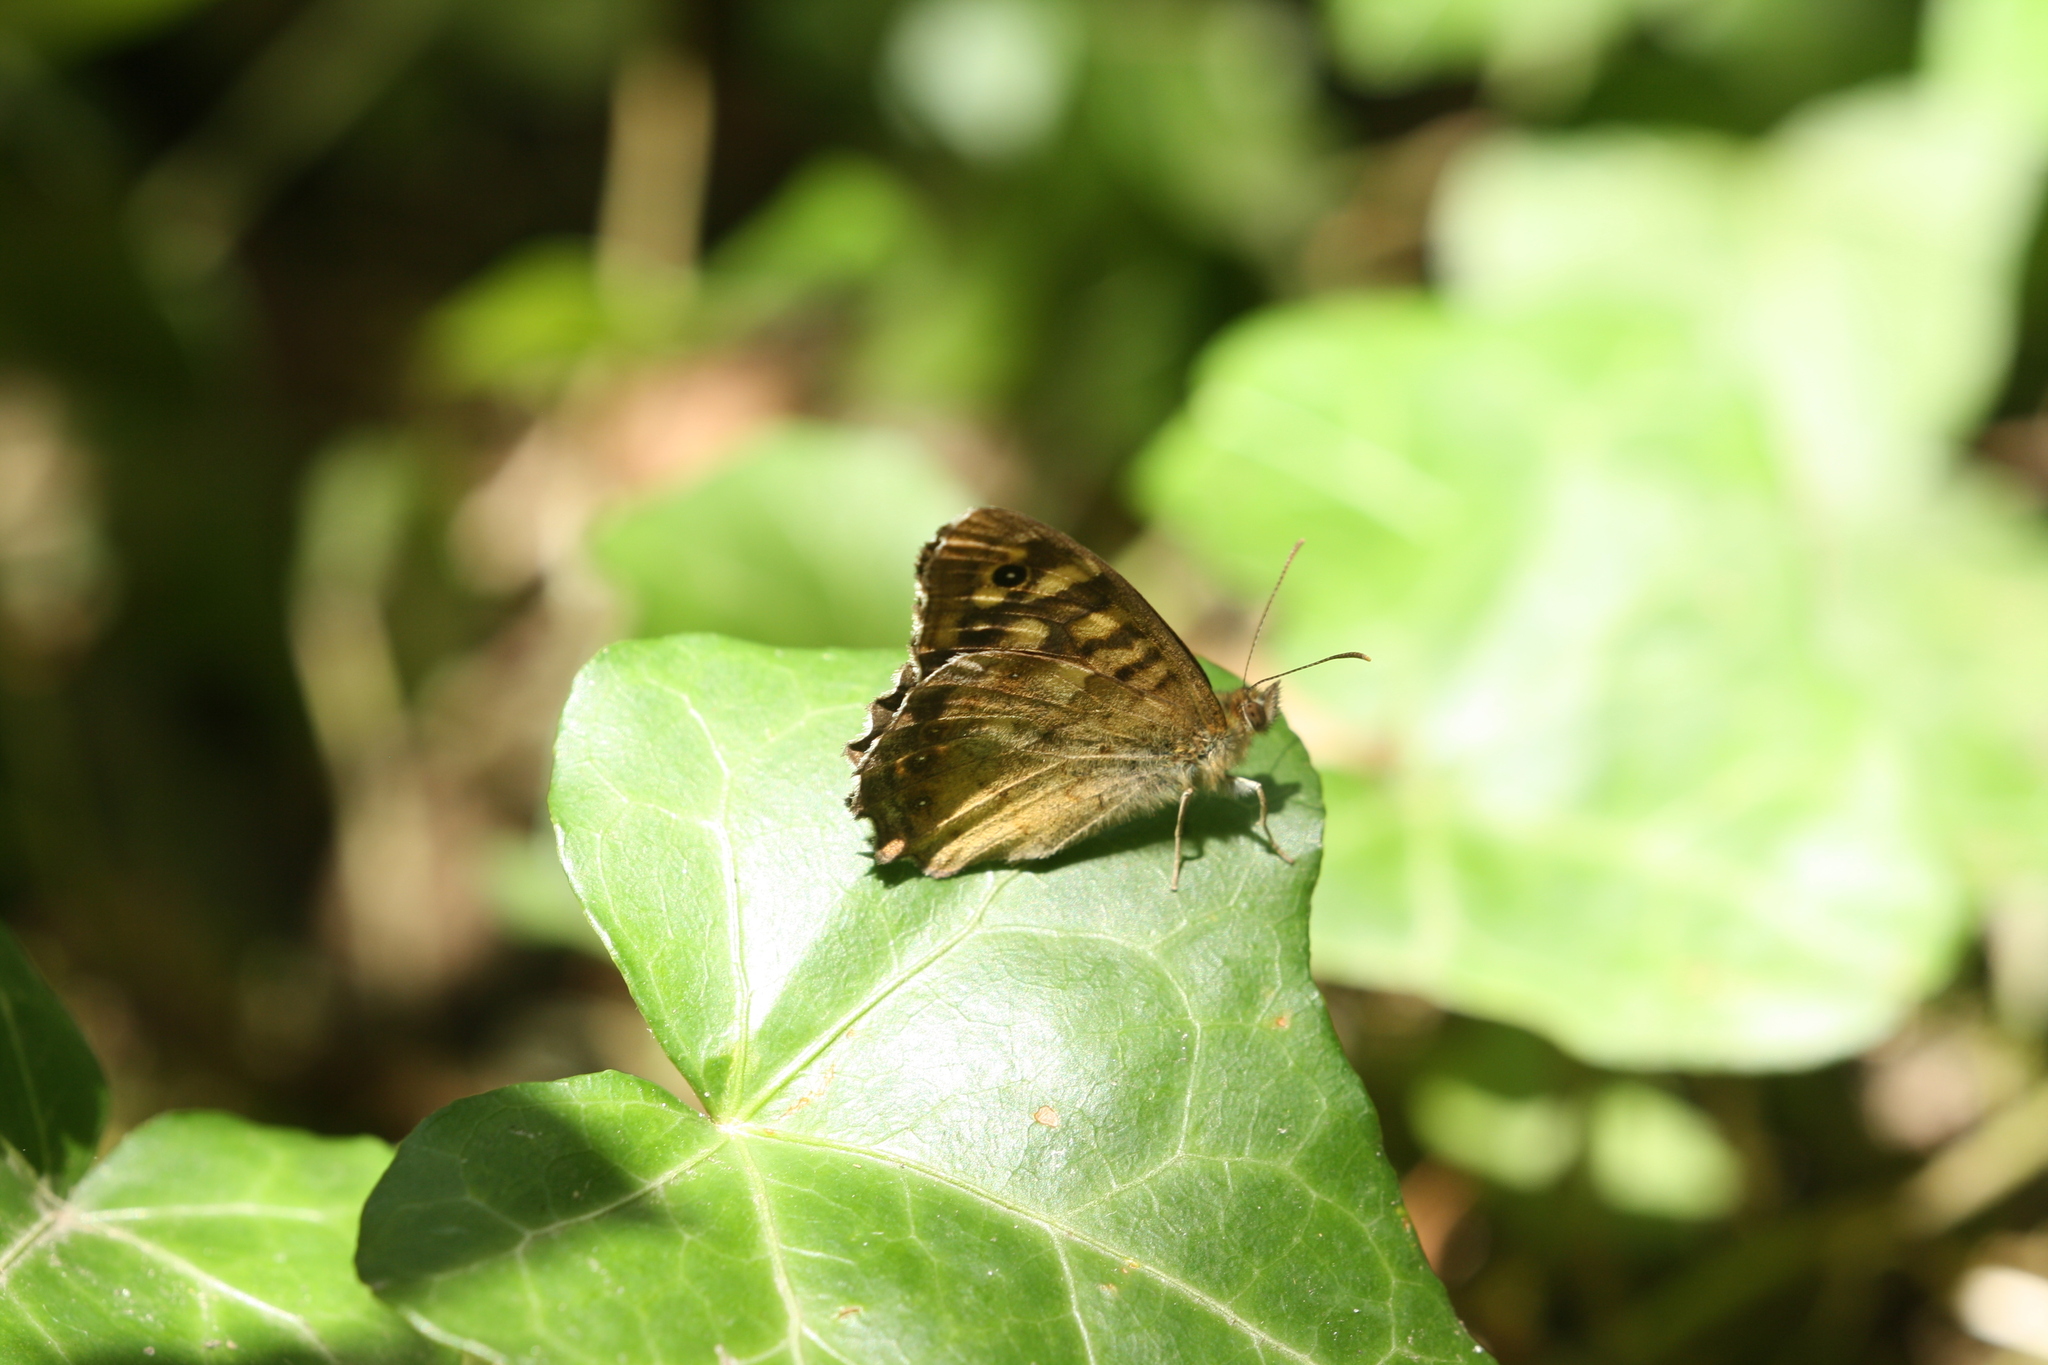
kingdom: Animalia
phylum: Arthropoda
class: Insecta
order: Lepidoptera
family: Nymphalidae
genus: Pararge
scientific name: Pararge aegeria
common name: Speckled wood
